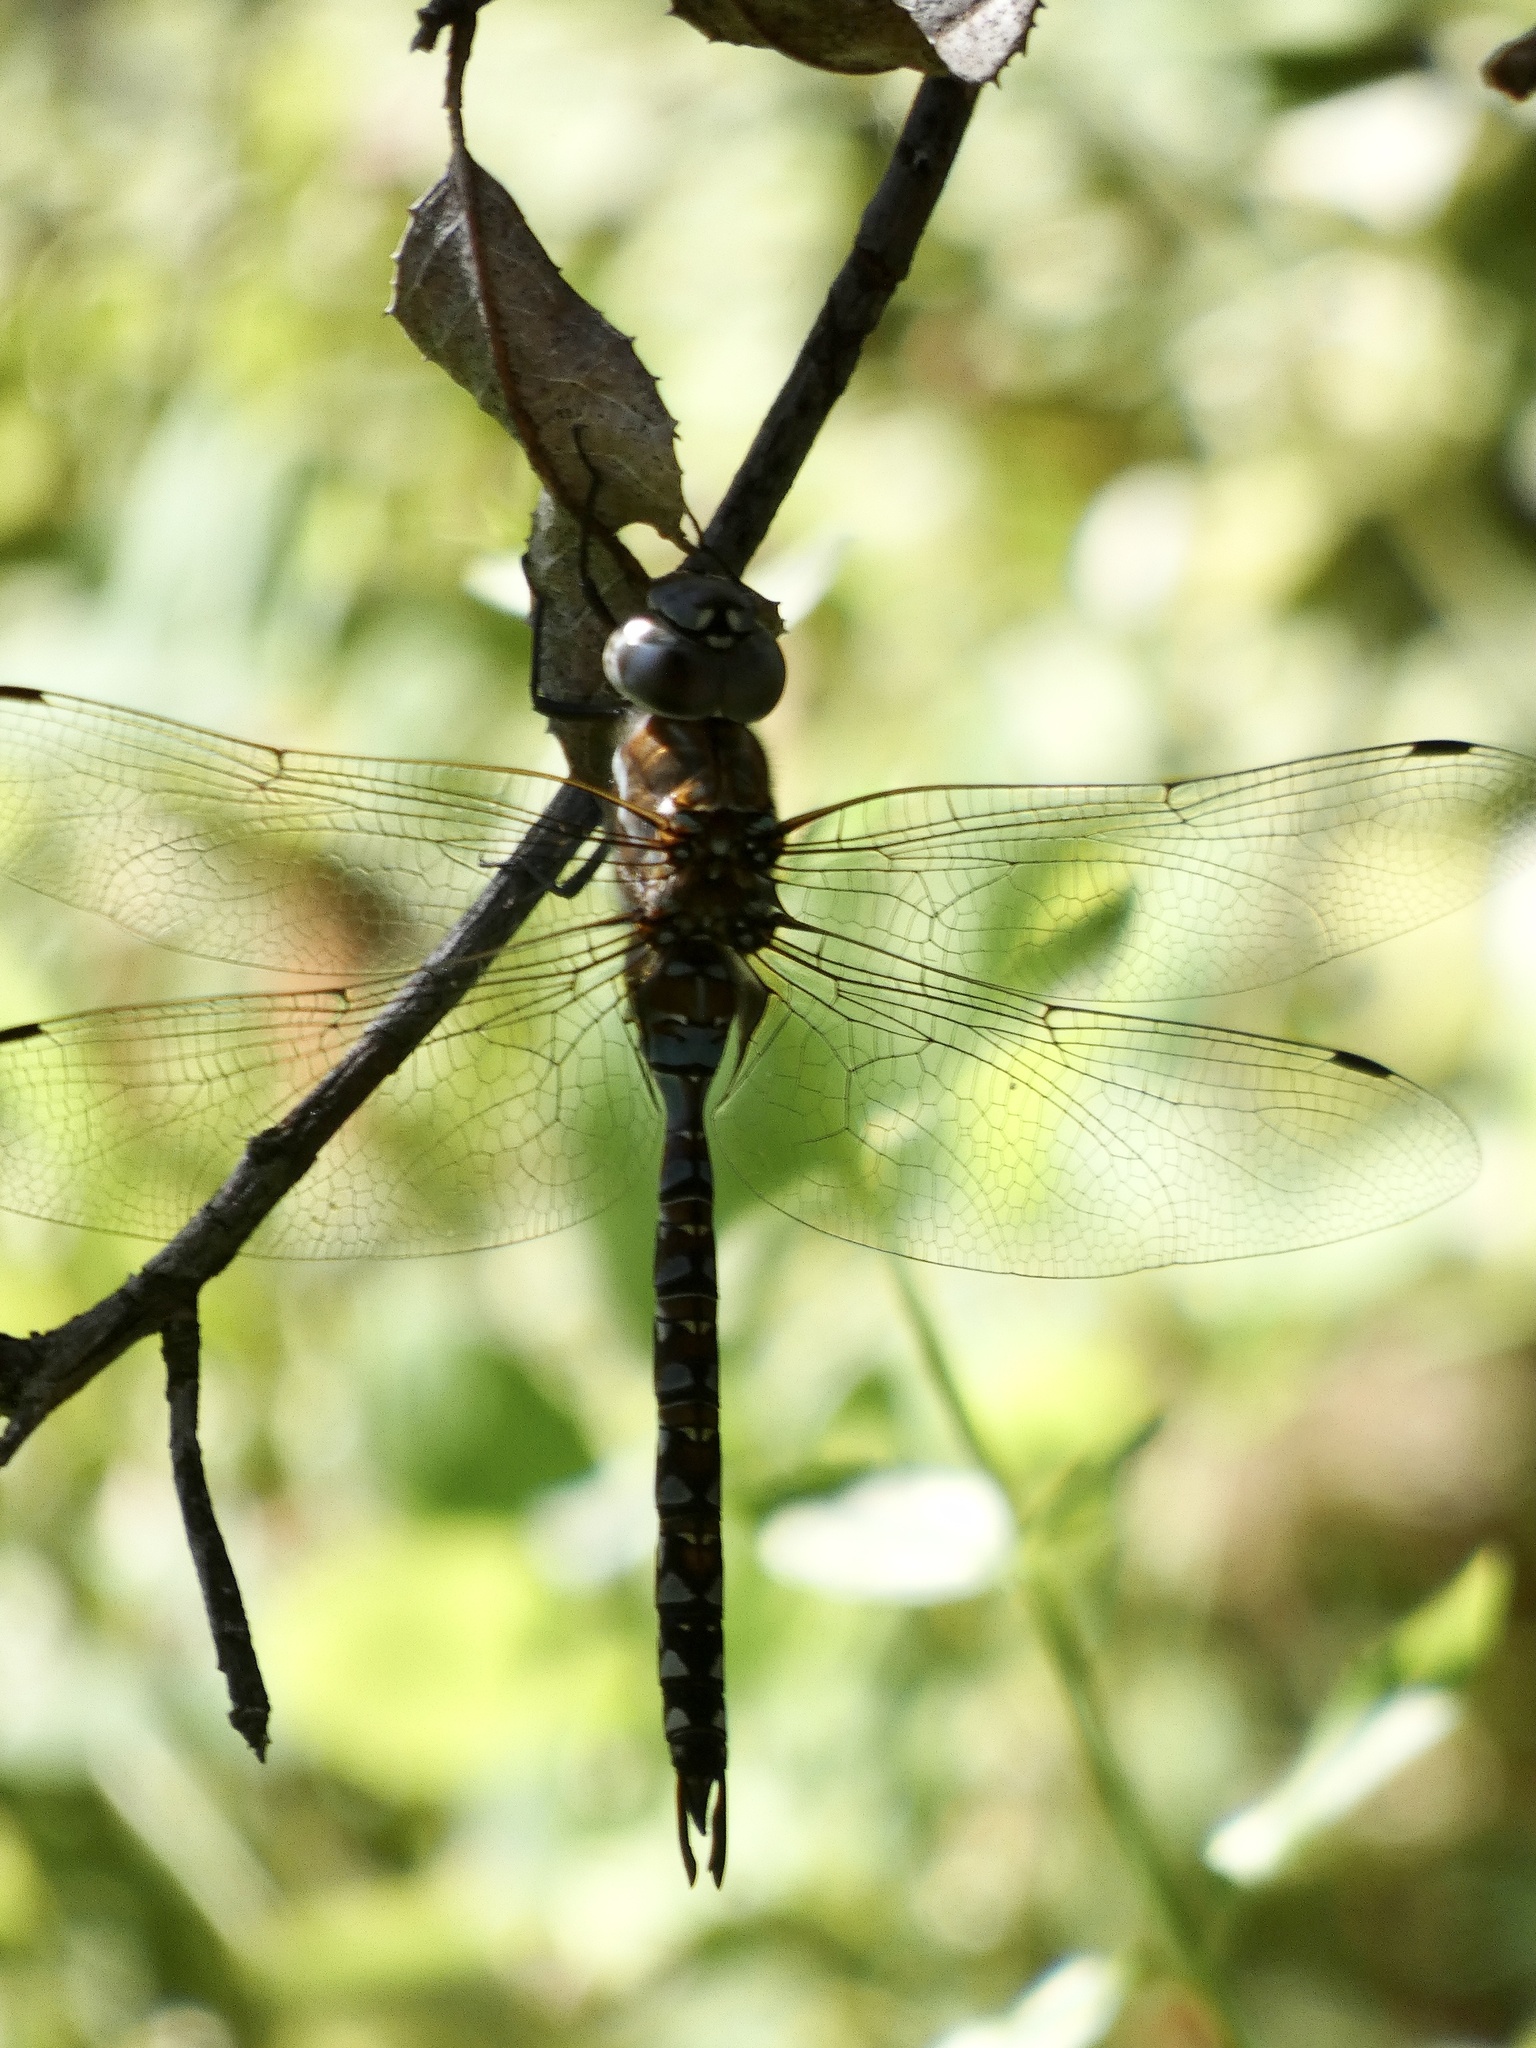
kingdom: Animalia
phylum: Arthropoda
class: Insecta
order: Odonata
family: Aeshnidae
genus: Rhionaeschna
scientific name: Rhionaeschna multicolor
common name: Blue-eyed darner
